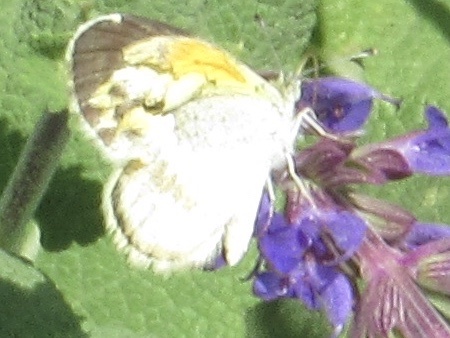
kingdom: Animalia
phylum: Arthropoda
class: Insecta
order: Lepidoptera
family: Pieridae
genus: Nathalis
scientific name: Nathalis iole
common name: Dainty sulphur
